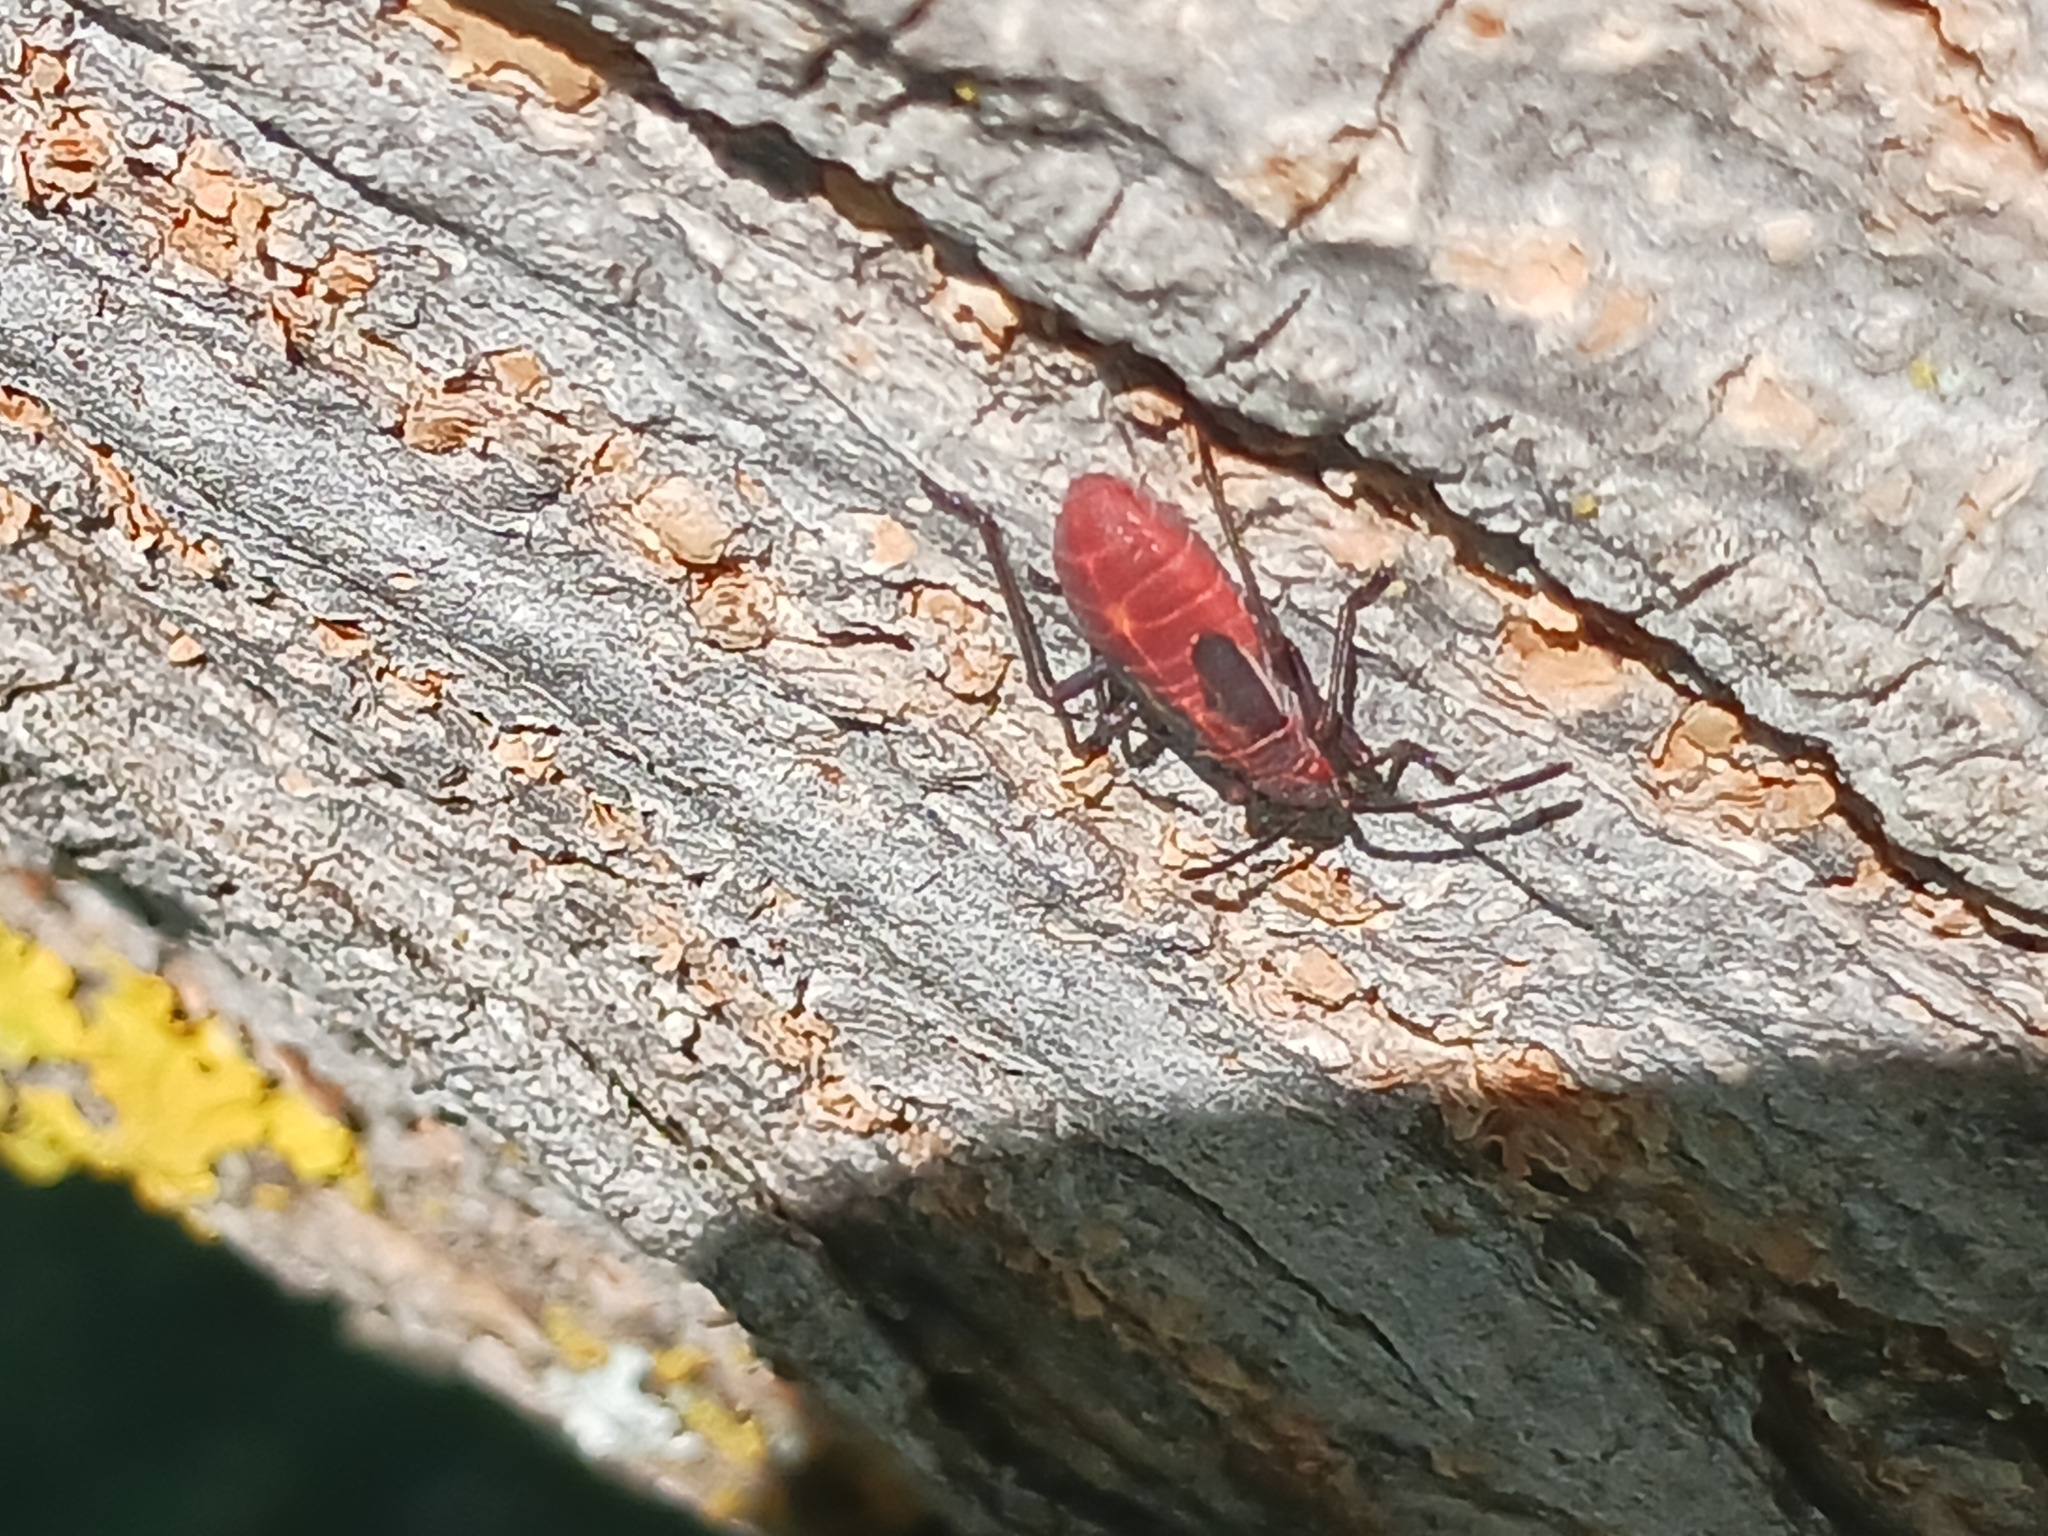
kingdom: Animalia
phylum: Arthropoda
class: Insecta
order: Hemiptera
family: Rhopalidae
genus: Boisea
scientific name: Boisea rubrolineata
